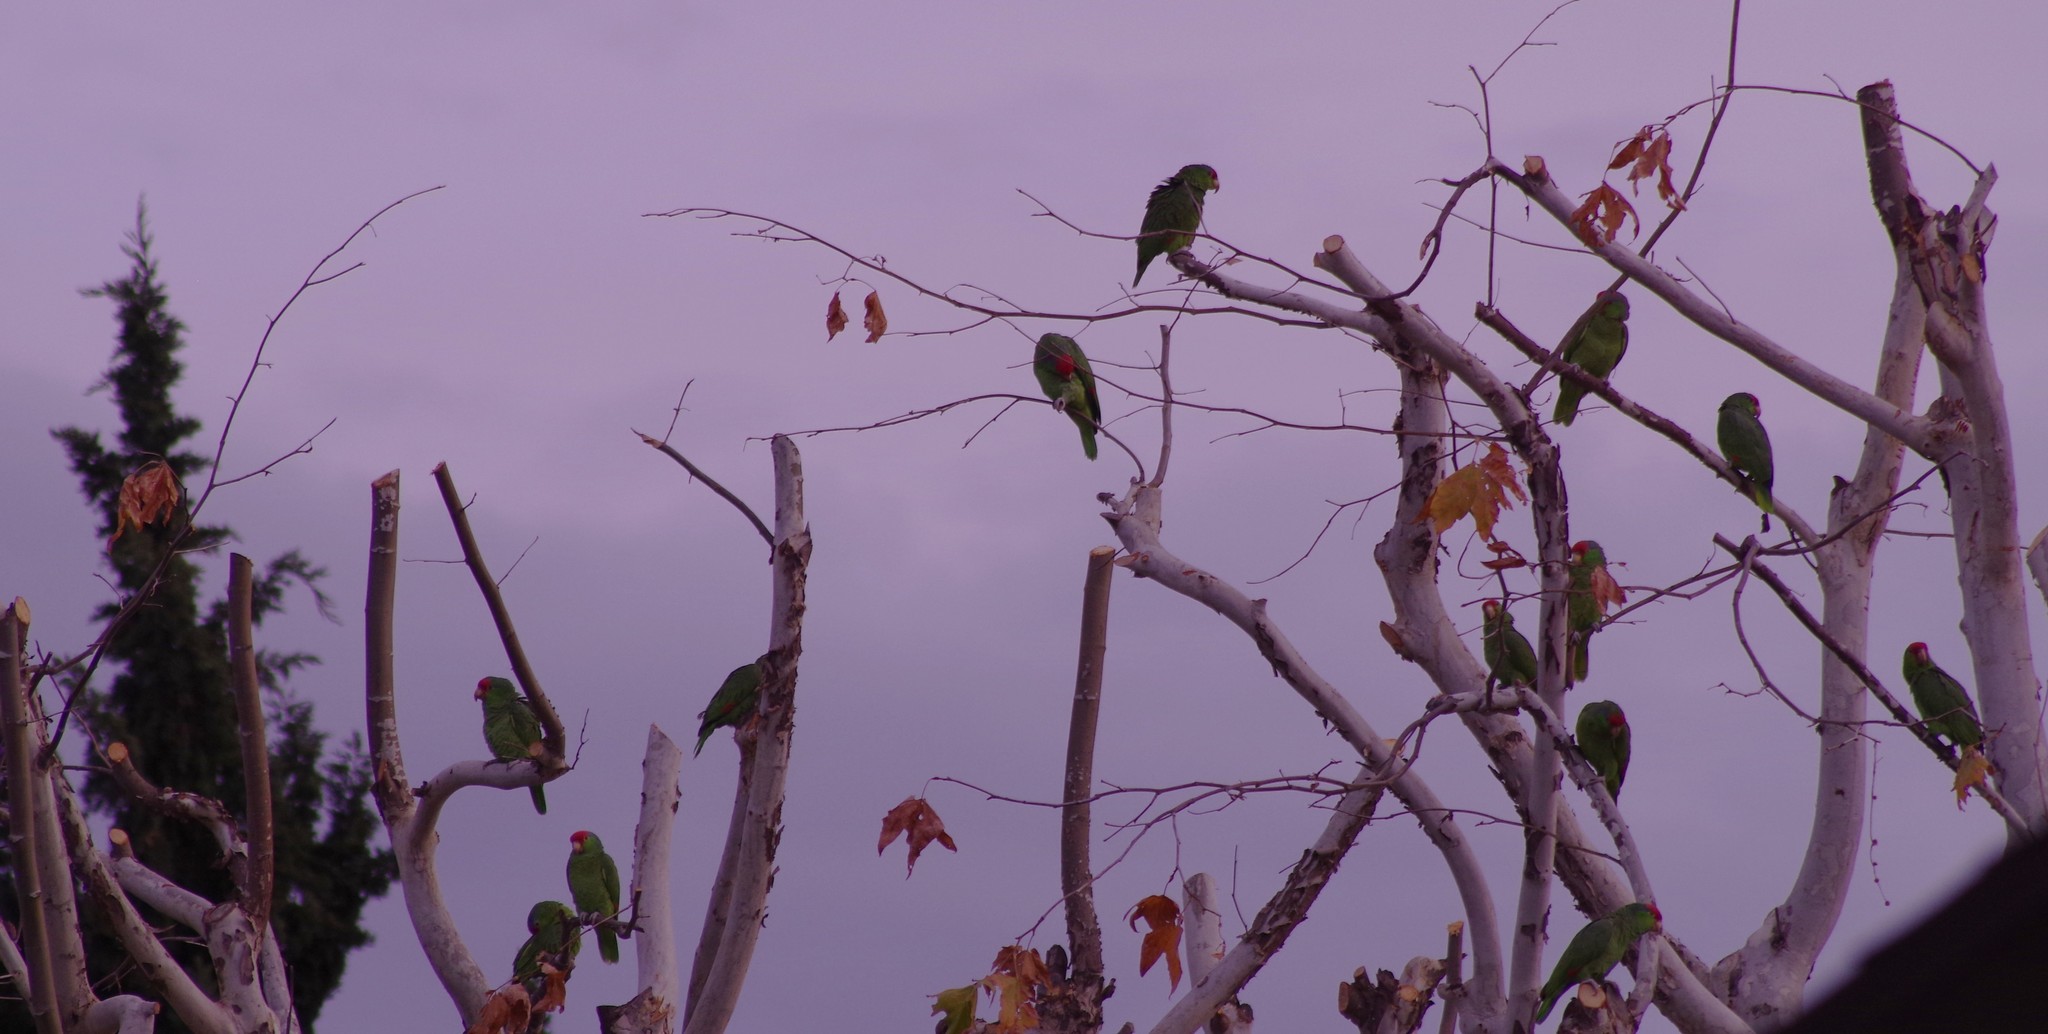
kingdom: Animalia
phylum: Chordata
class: Aves
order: Psittaciformes
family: Psittacidae
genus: Amazona
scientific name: Amazona viridigenalis
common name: Red-crowned amazon
